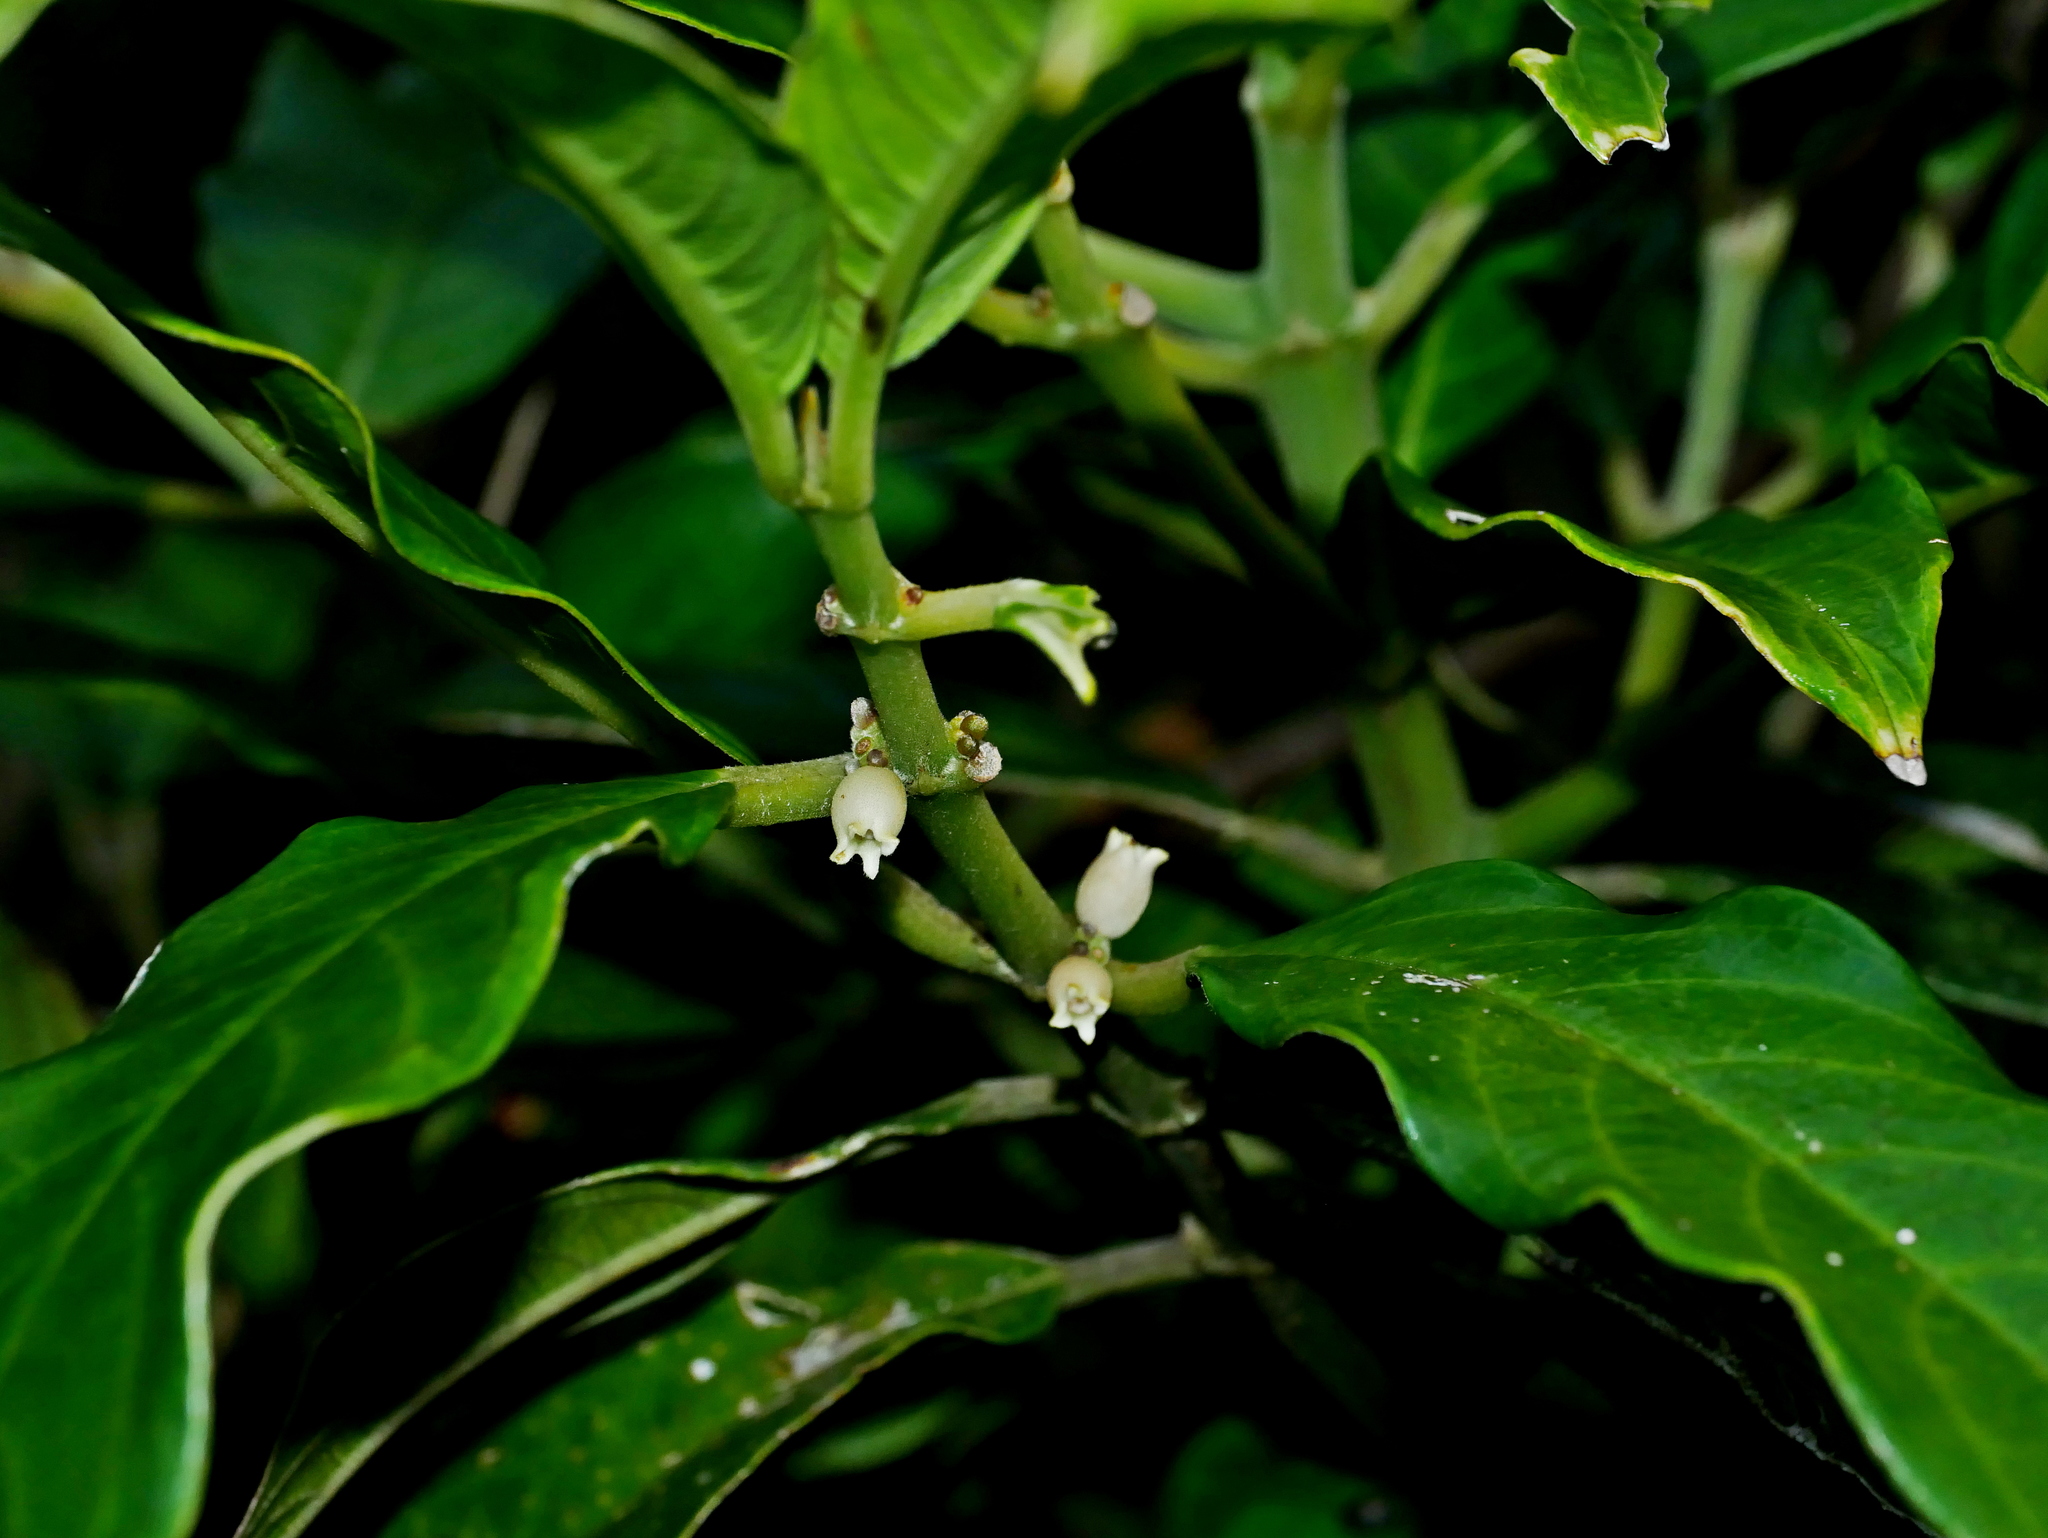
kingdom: Plantae
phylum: Tracheophyta
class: Magnoliopsida
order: Gentianales
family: Rubiaceae
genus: Lasianthus
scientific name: Lasianthus chinensis
